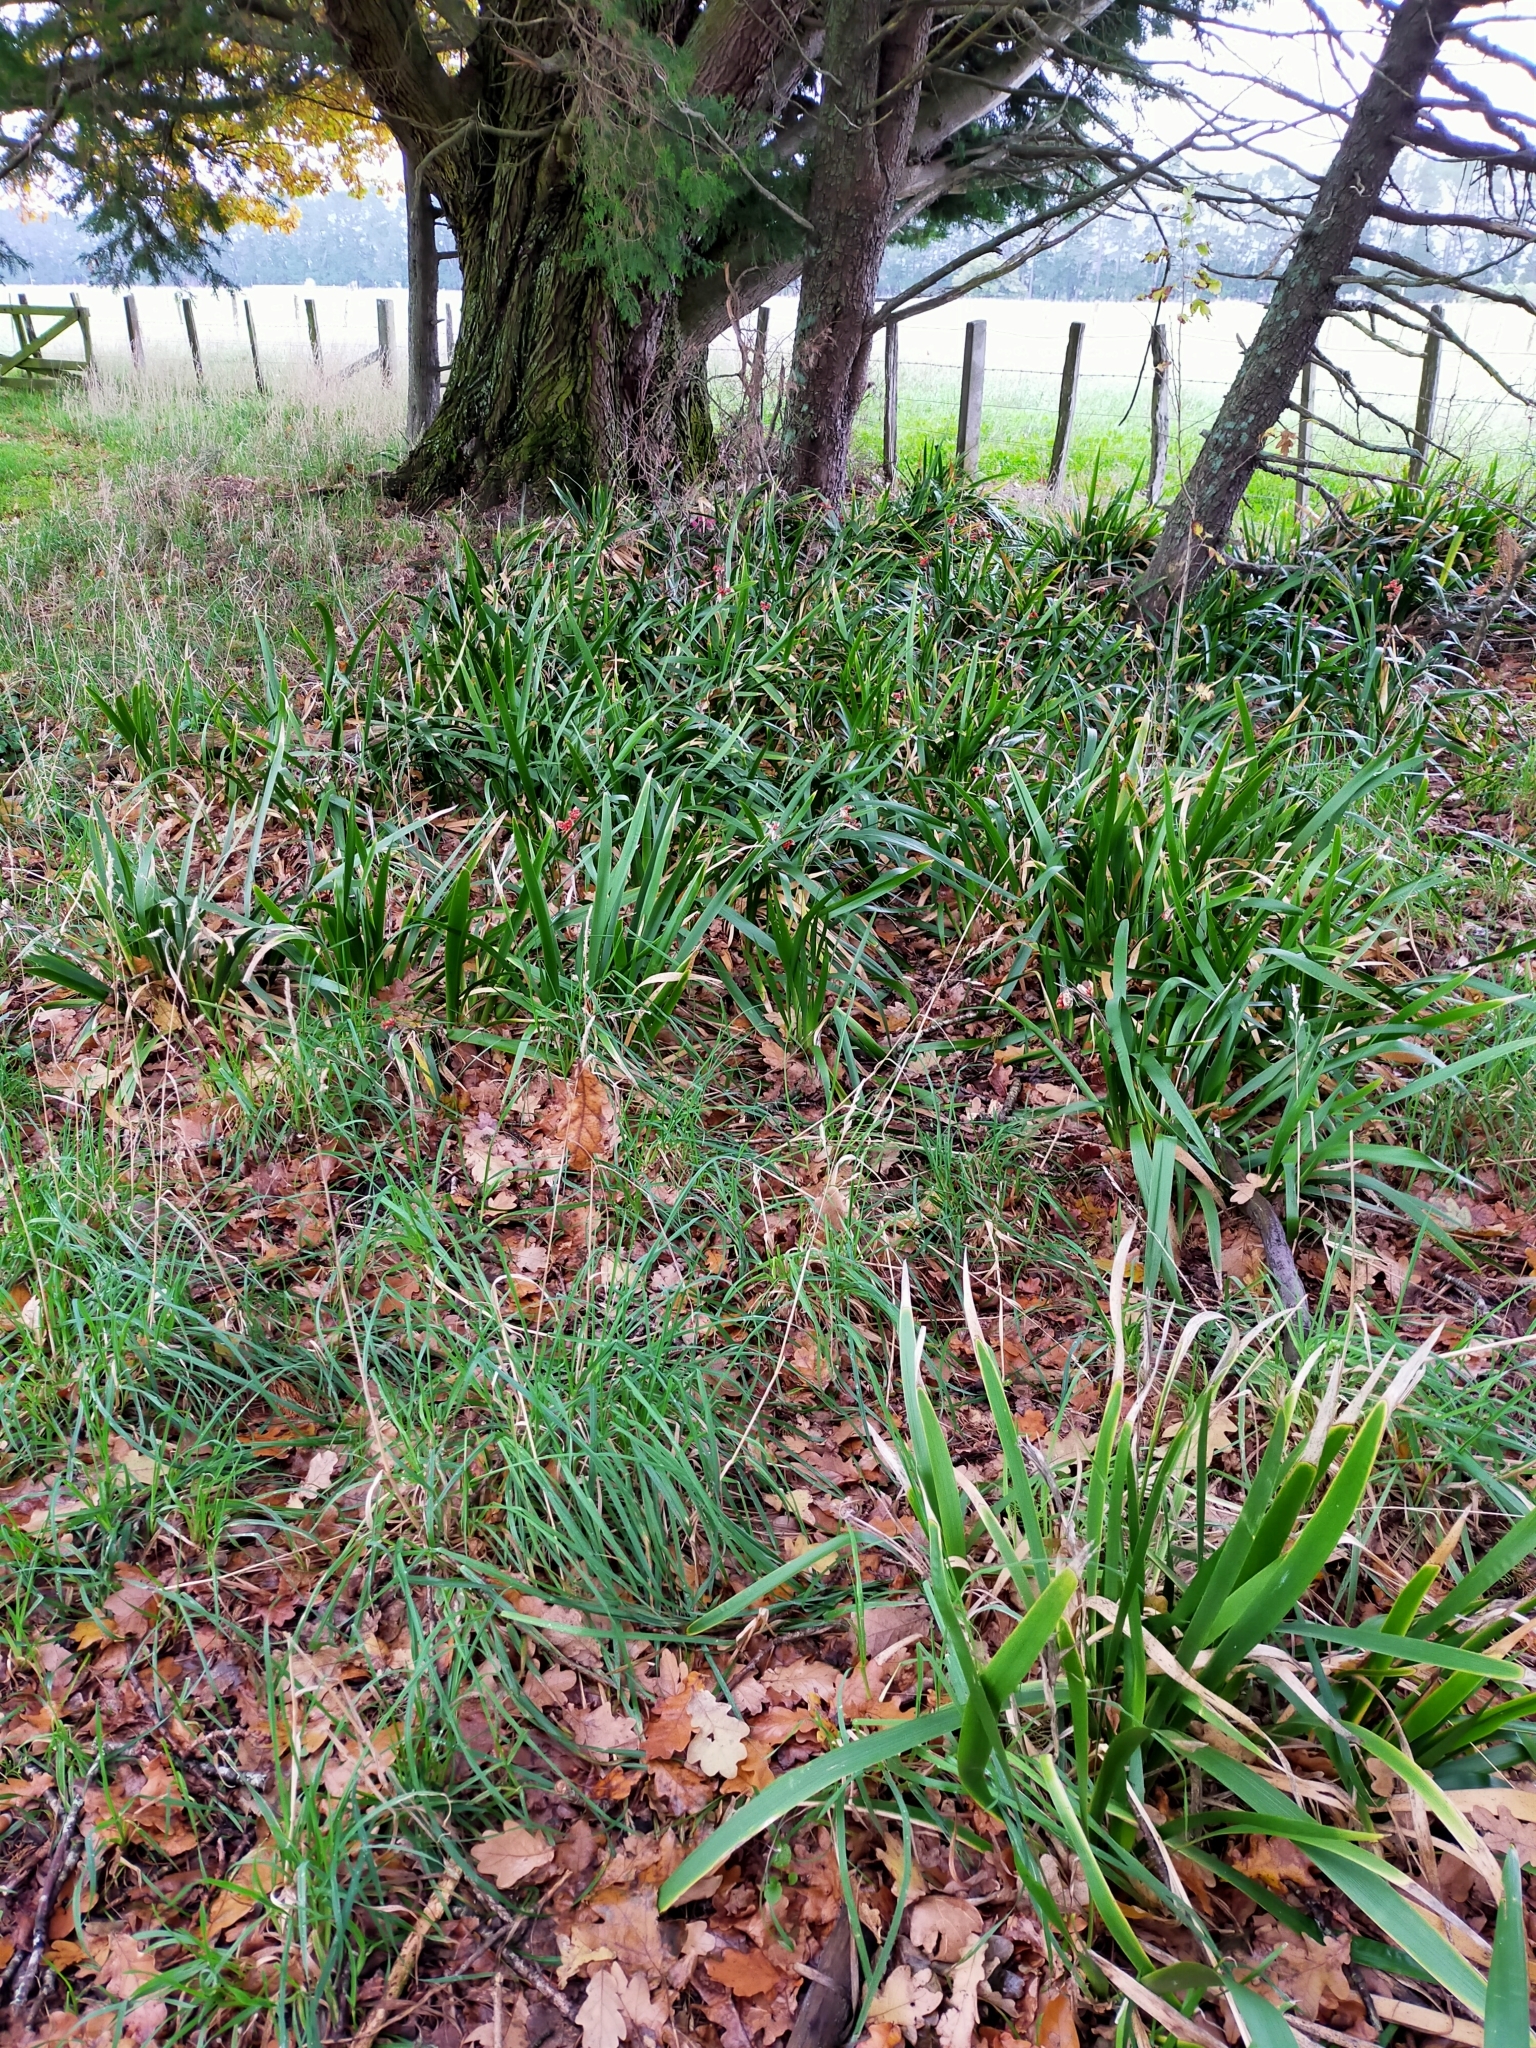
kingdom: Plantae
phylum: Tracheophyta
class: Liliopsida
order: Asparagales
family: Iridaceae
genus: Iris
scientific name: Iris foetidissima
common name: Stinking iris
